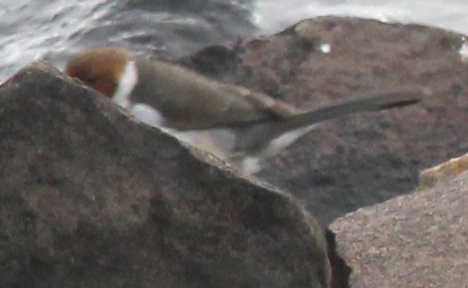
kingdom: Animalia
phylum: Chordata
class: Aves
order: Passeriformes
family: Thraupidae
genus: Paroaria
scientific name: Paroaria capitata
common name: Yellow-billed cardinal
